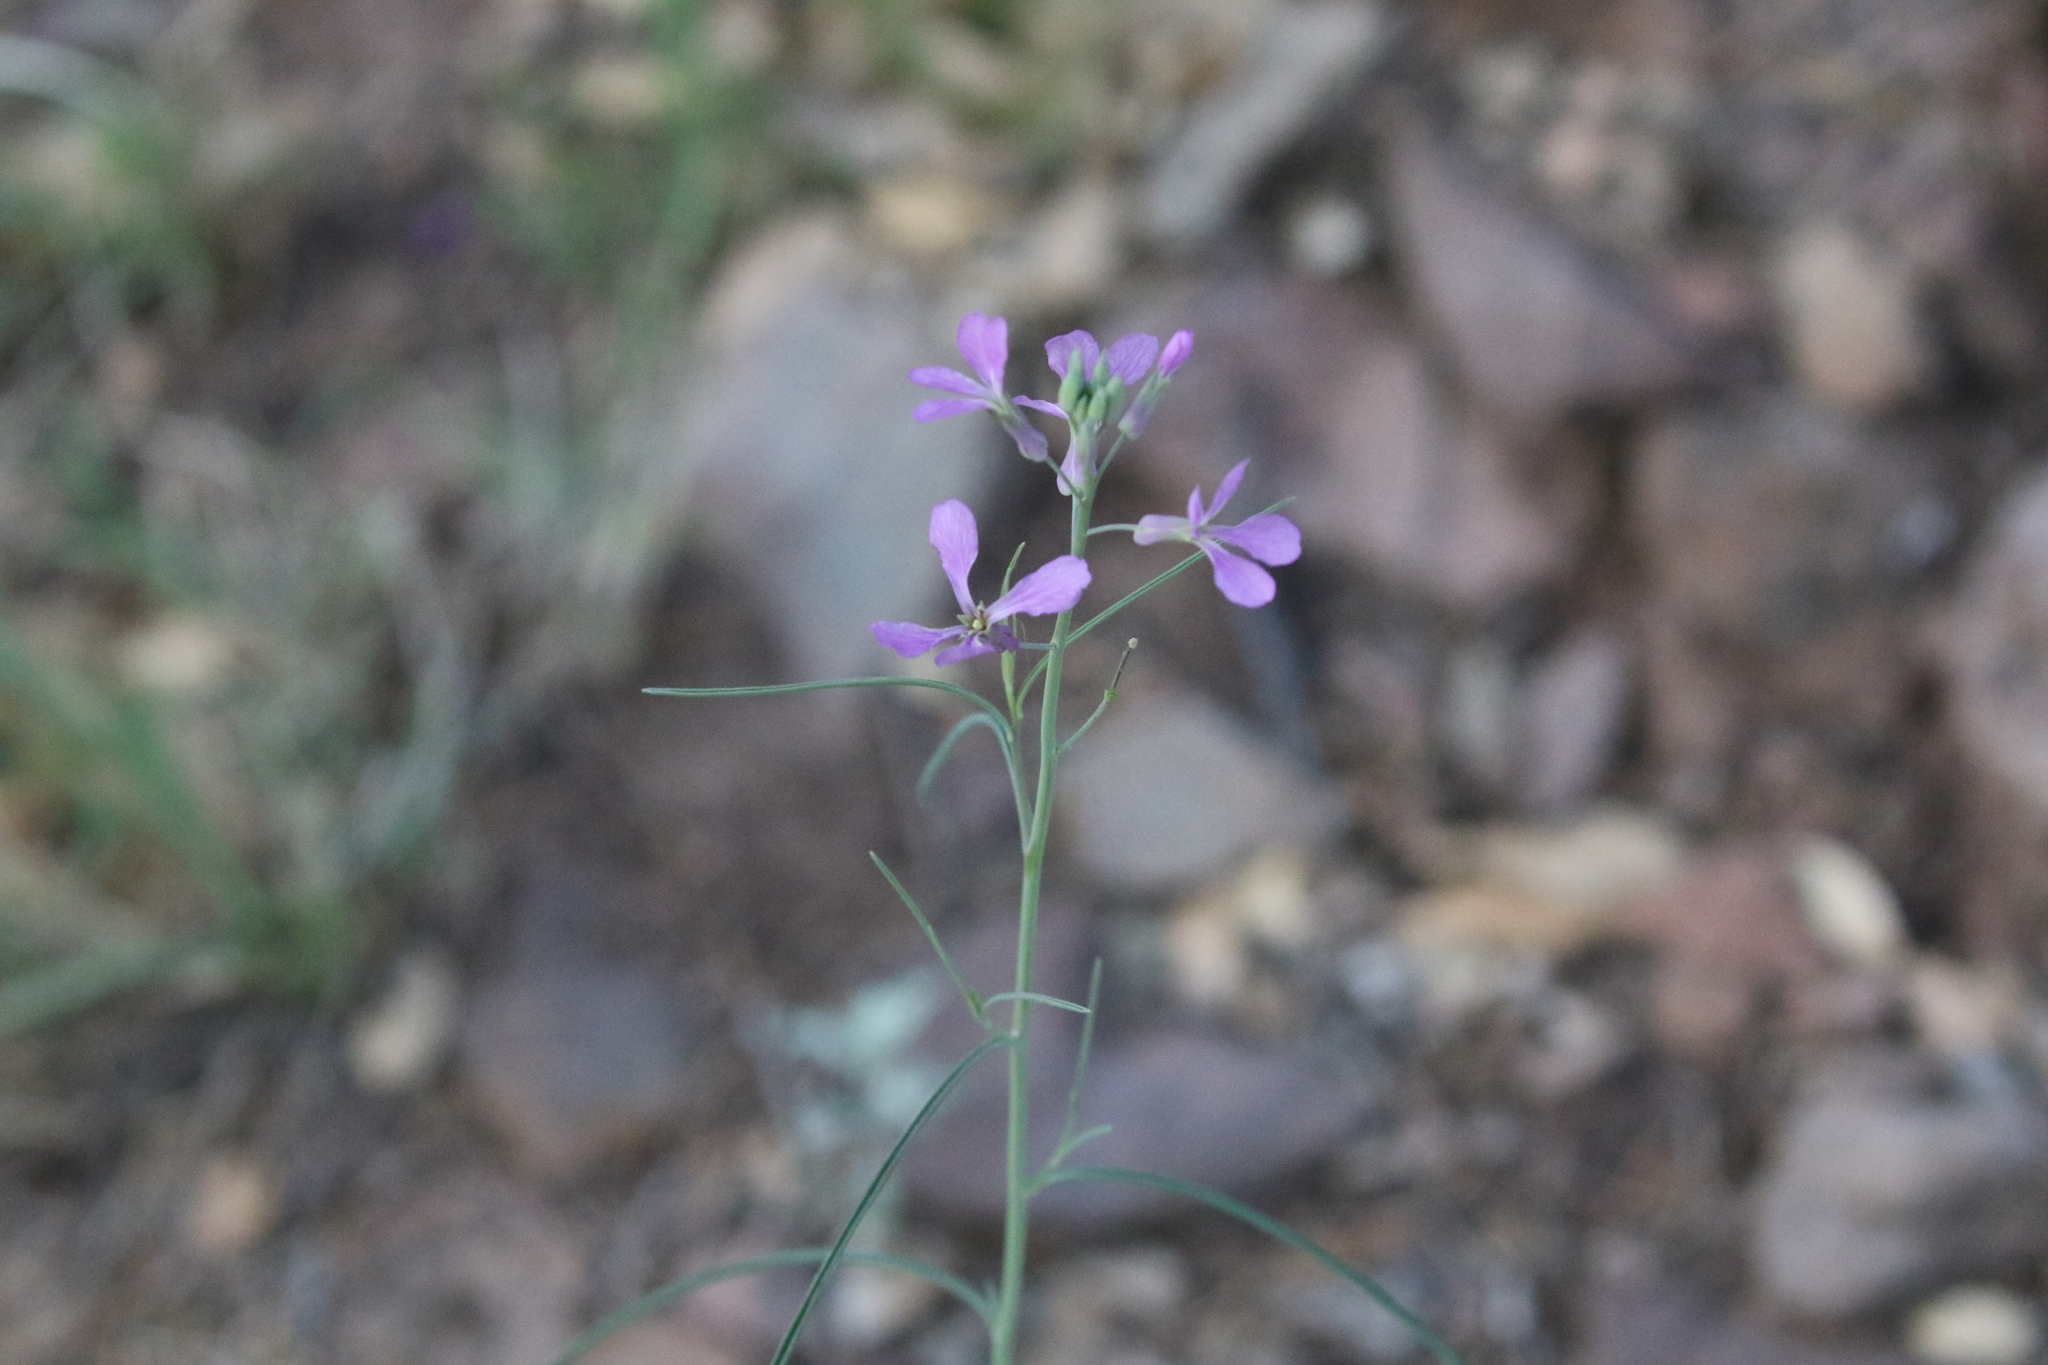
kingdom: Plantae
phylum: Tracheophyta
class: Magnoliopsida
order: Brassicales
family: Brassicaceae
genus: Hesperidanthus
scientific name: Hesperidanthus linearifolius
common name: Slim-leaf plains mustard
